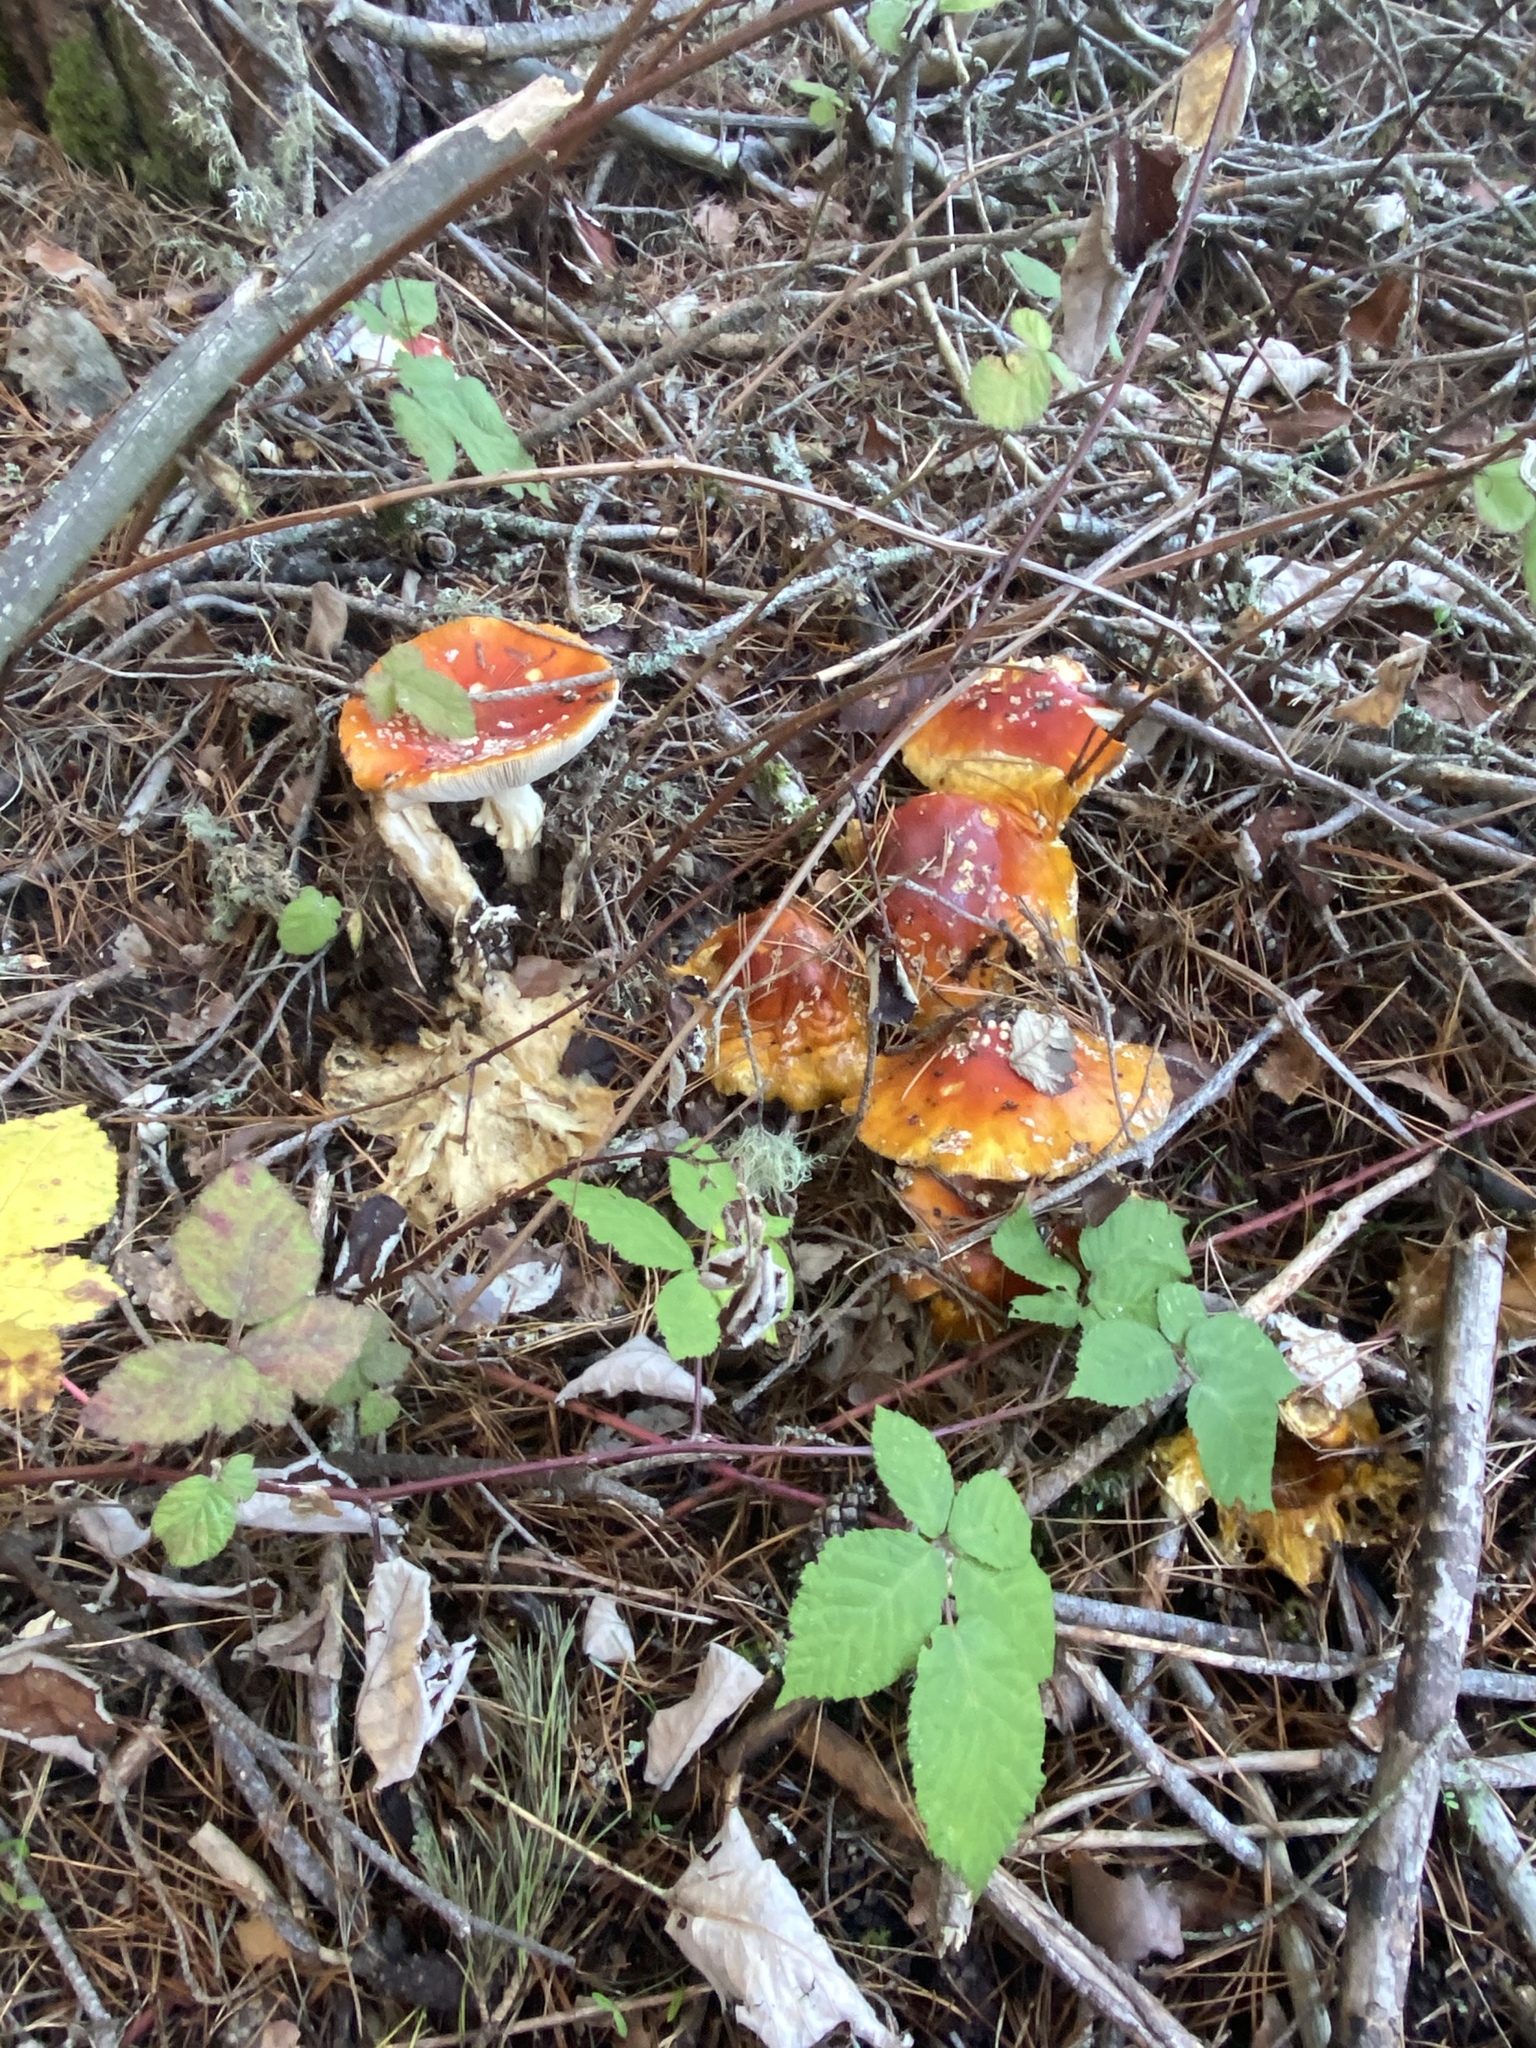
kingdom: Fungi
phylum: Basidiomycota
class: Agaricomycetes
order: Agaricales
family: Amanitaceae
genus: Amanita
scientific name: Amanita muscaria
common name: Fly agaric
